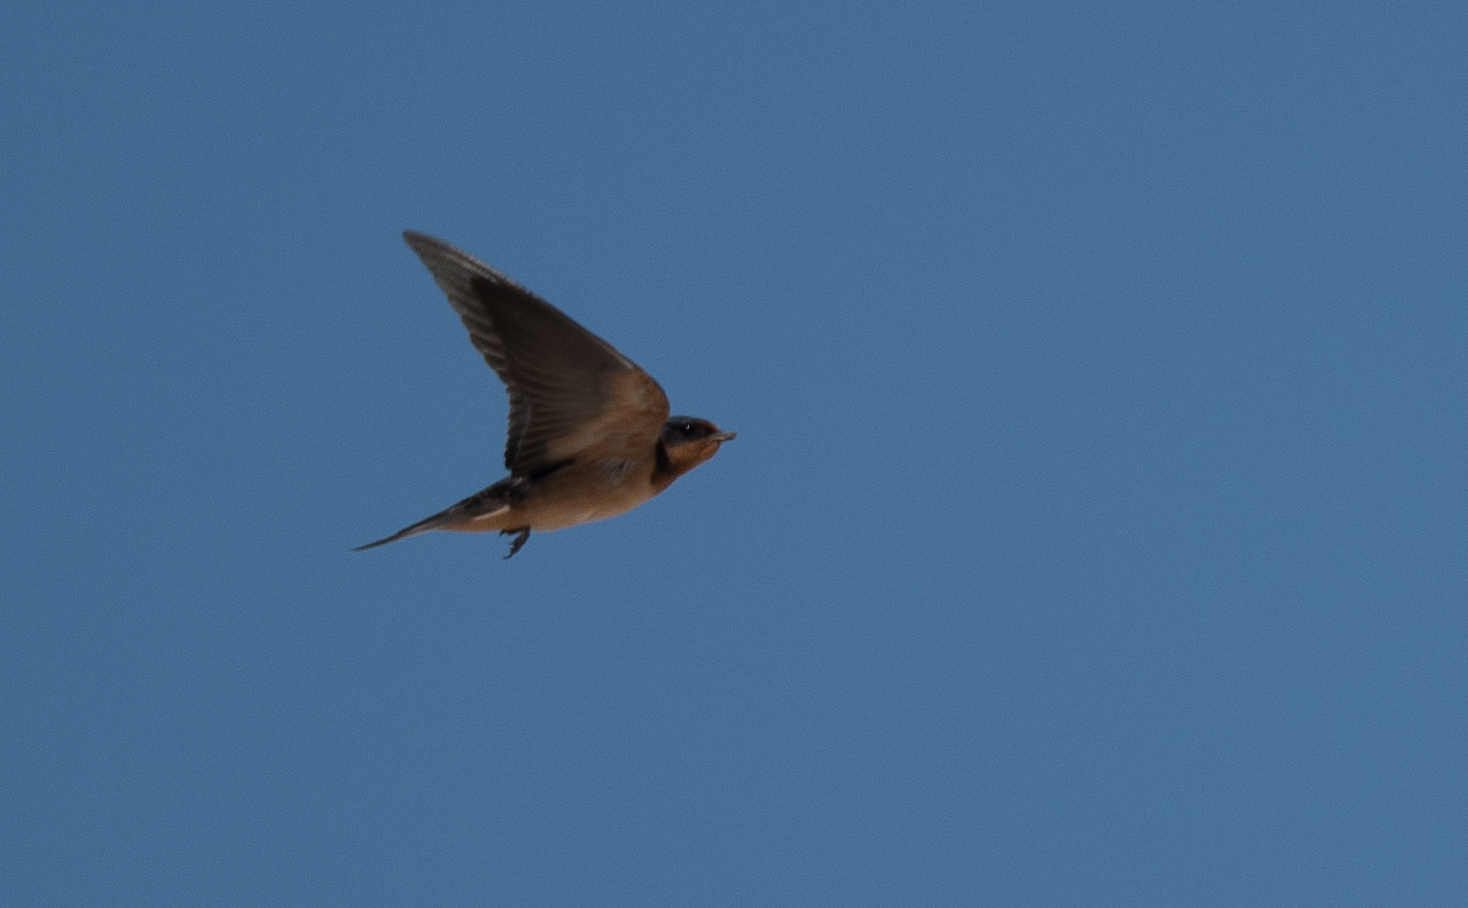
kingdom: Animalia
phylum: Chordata
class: Aves
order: Passeriformes
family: Hirundinidae
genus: Hirundo
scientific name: Hirundo rustica
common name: Barn swallow
